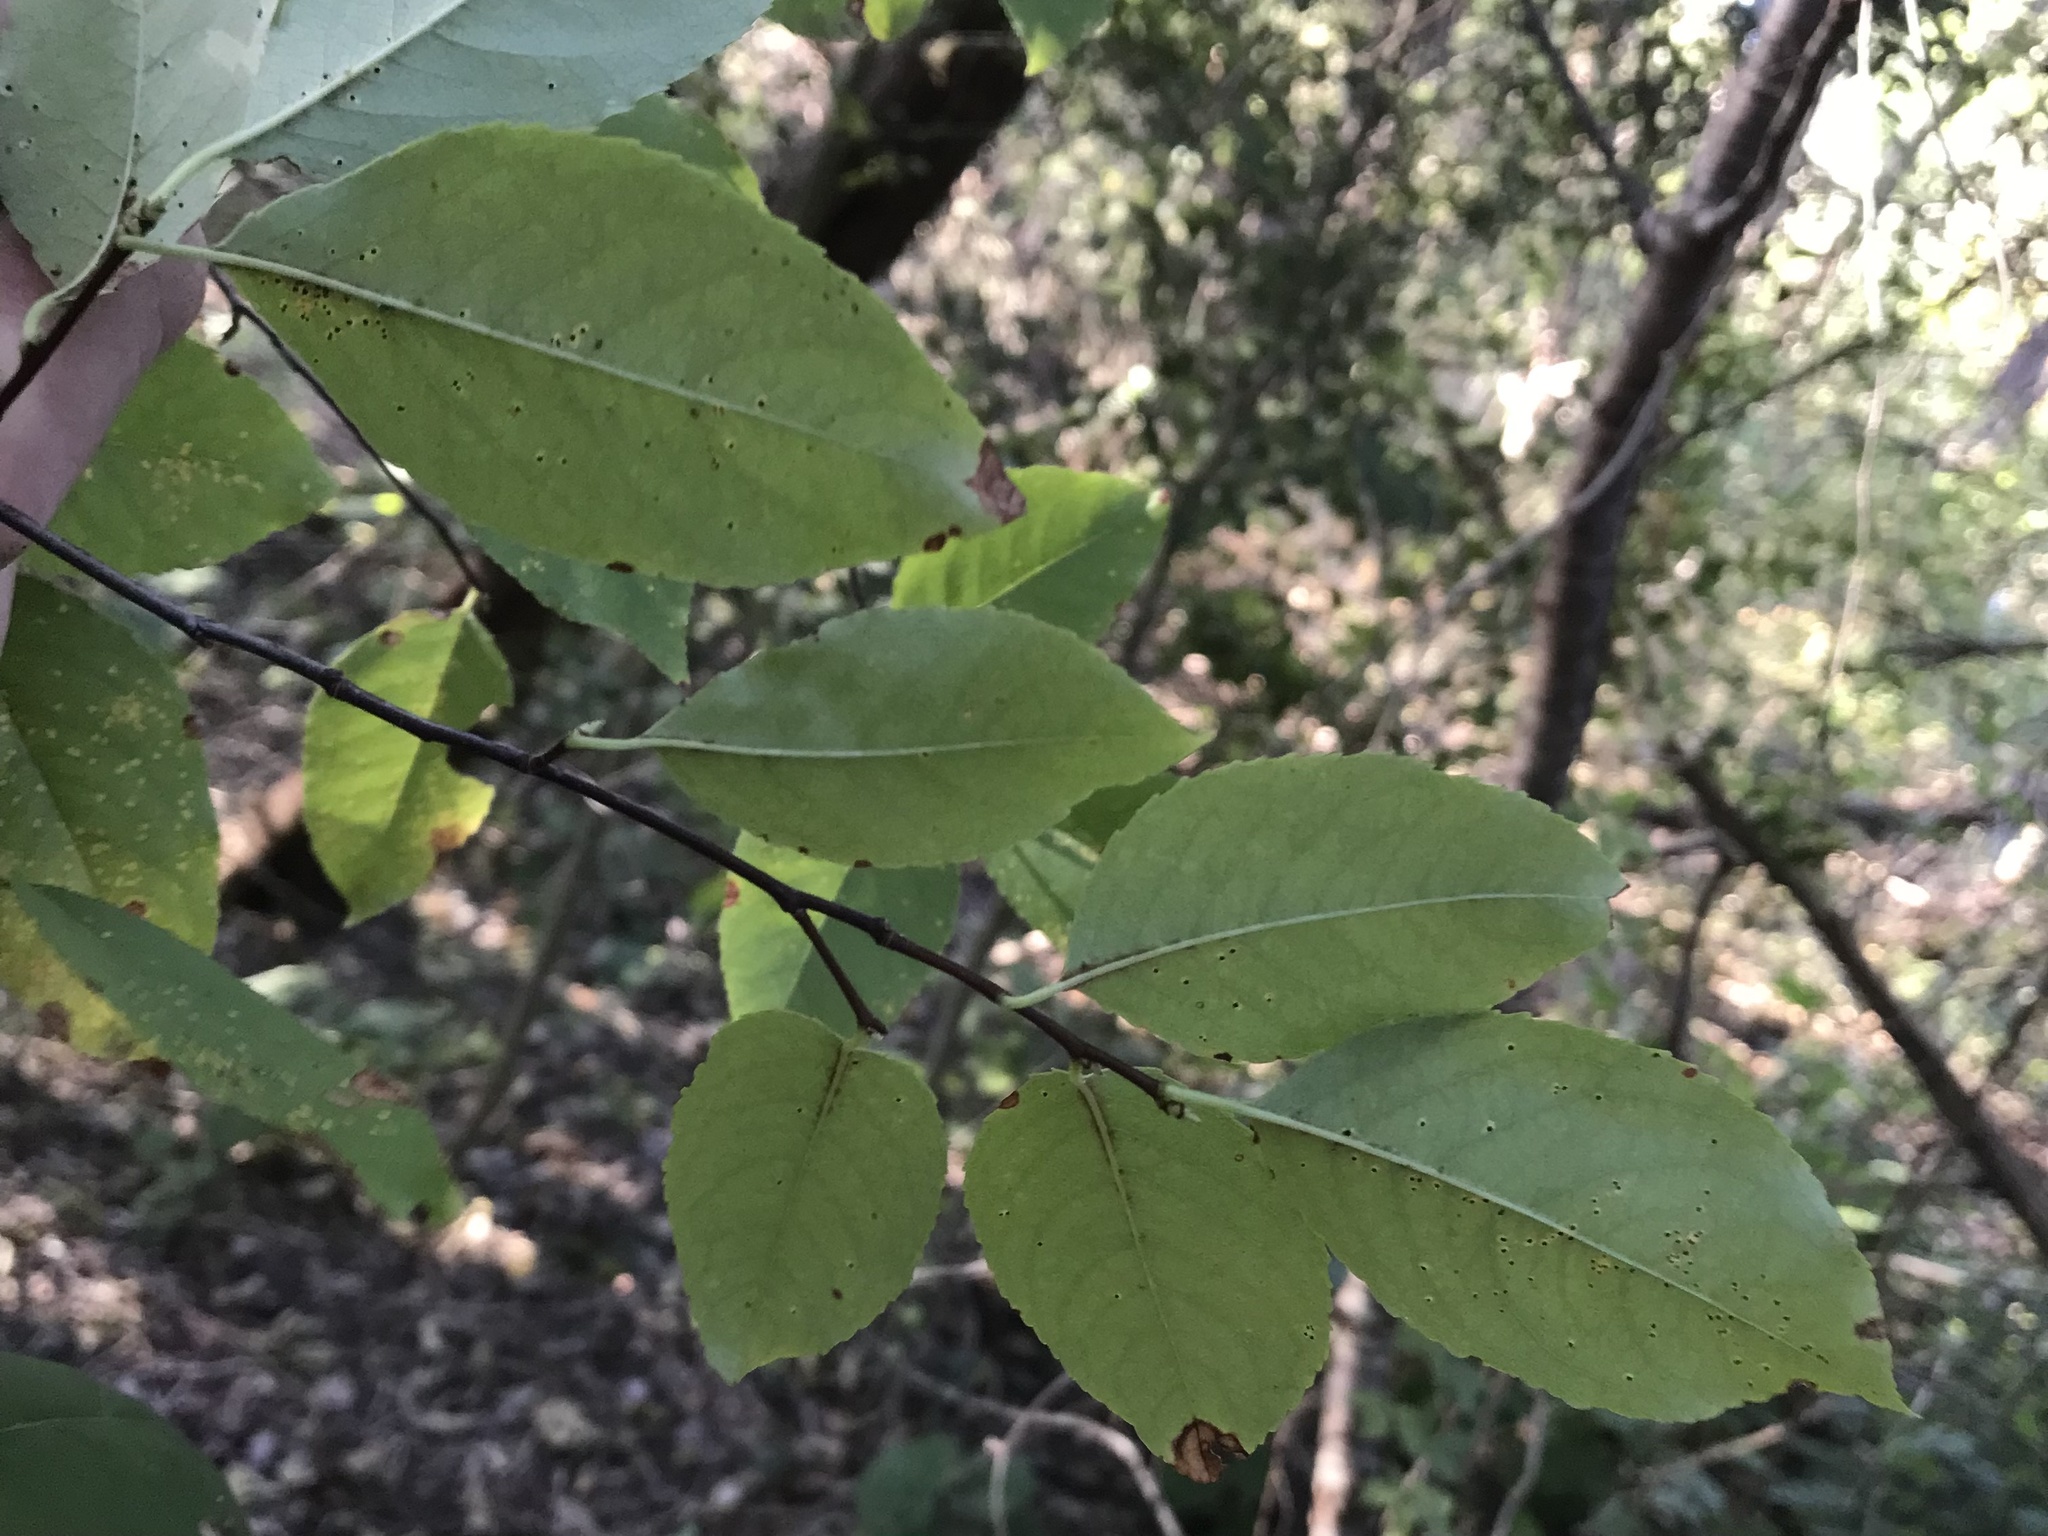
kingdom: Plantae
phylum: Tracheophyta
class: Magnoliopsida
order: Rosales
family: Rosaceae
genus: Prunus
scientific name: Prunus serotina
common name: Black cherry
